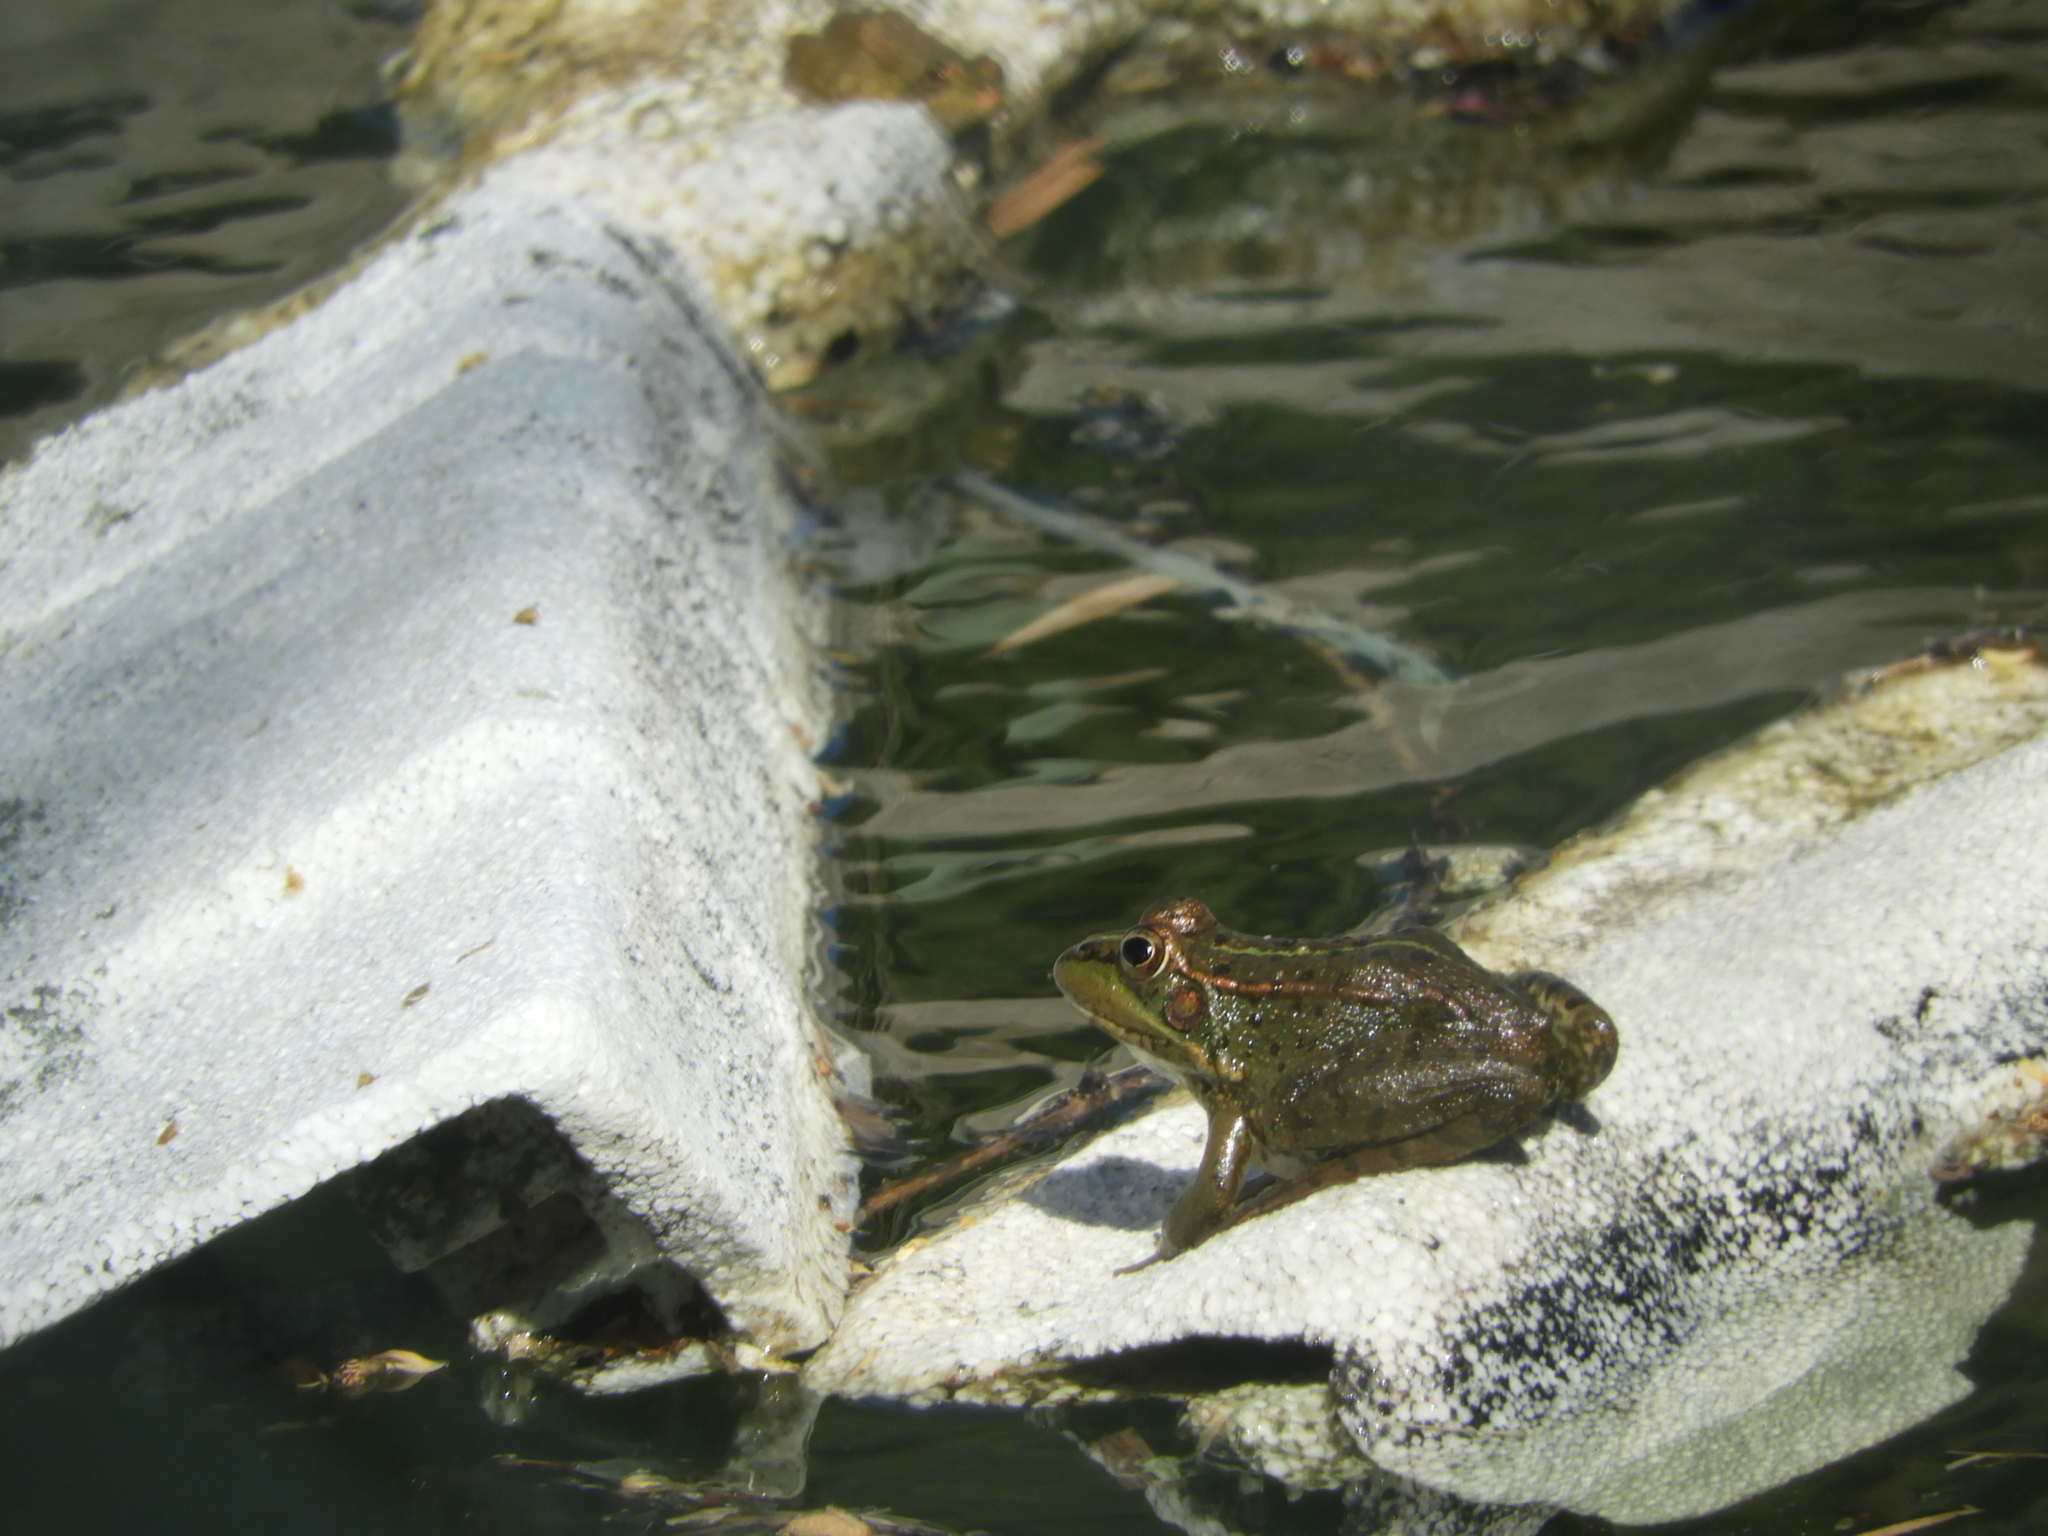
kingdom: Animalia
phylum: Chordata
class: Amphibia
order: Anura
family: Ranidae
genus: Pelophylax
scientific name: Pelophylax perezi
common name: Perez's frog
